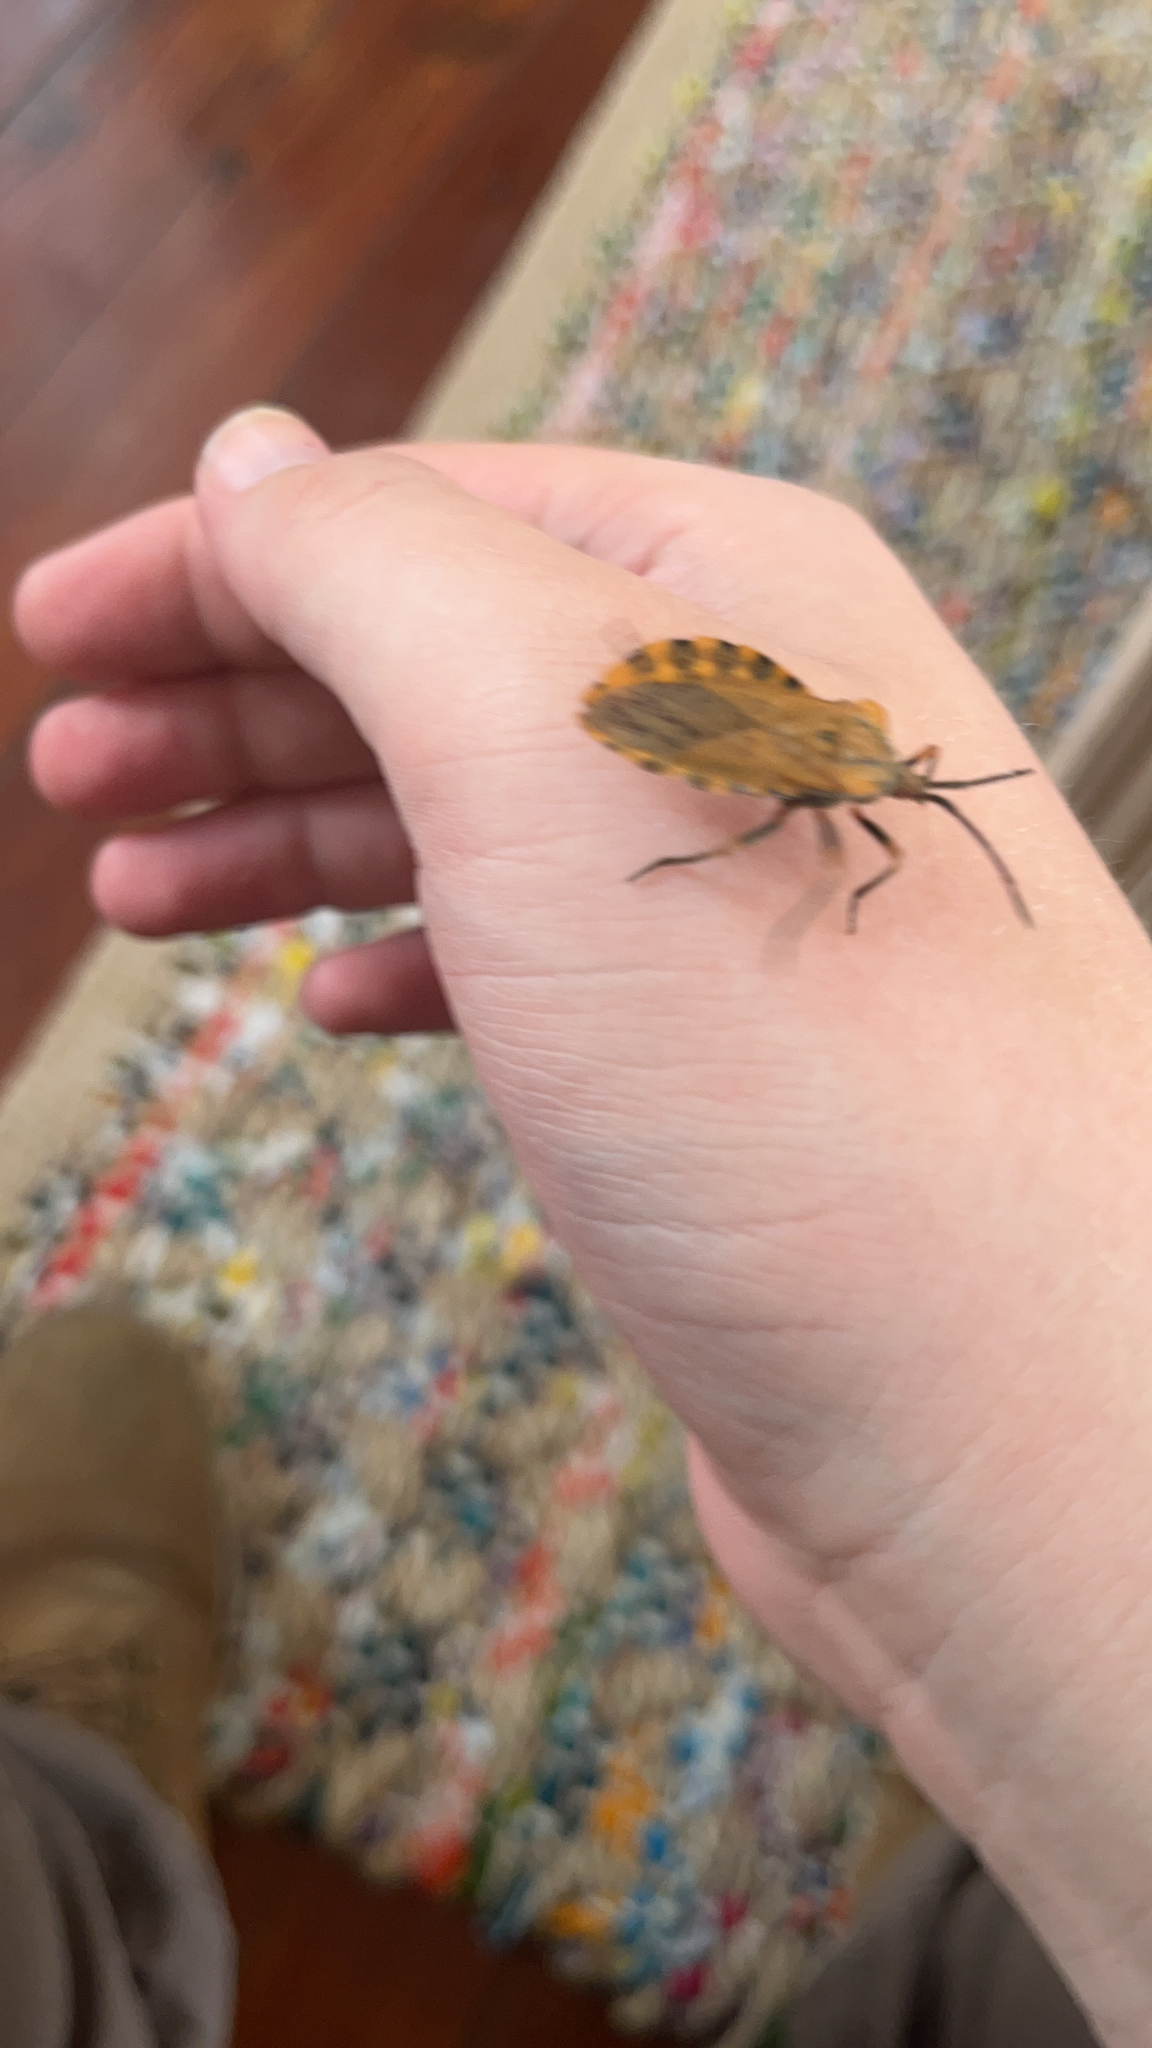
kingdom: Animalia
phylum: Arthropoda
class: Insecta
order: Hemiptera
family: Coreidae
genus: Spartocera
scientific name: Spartocera fusca
